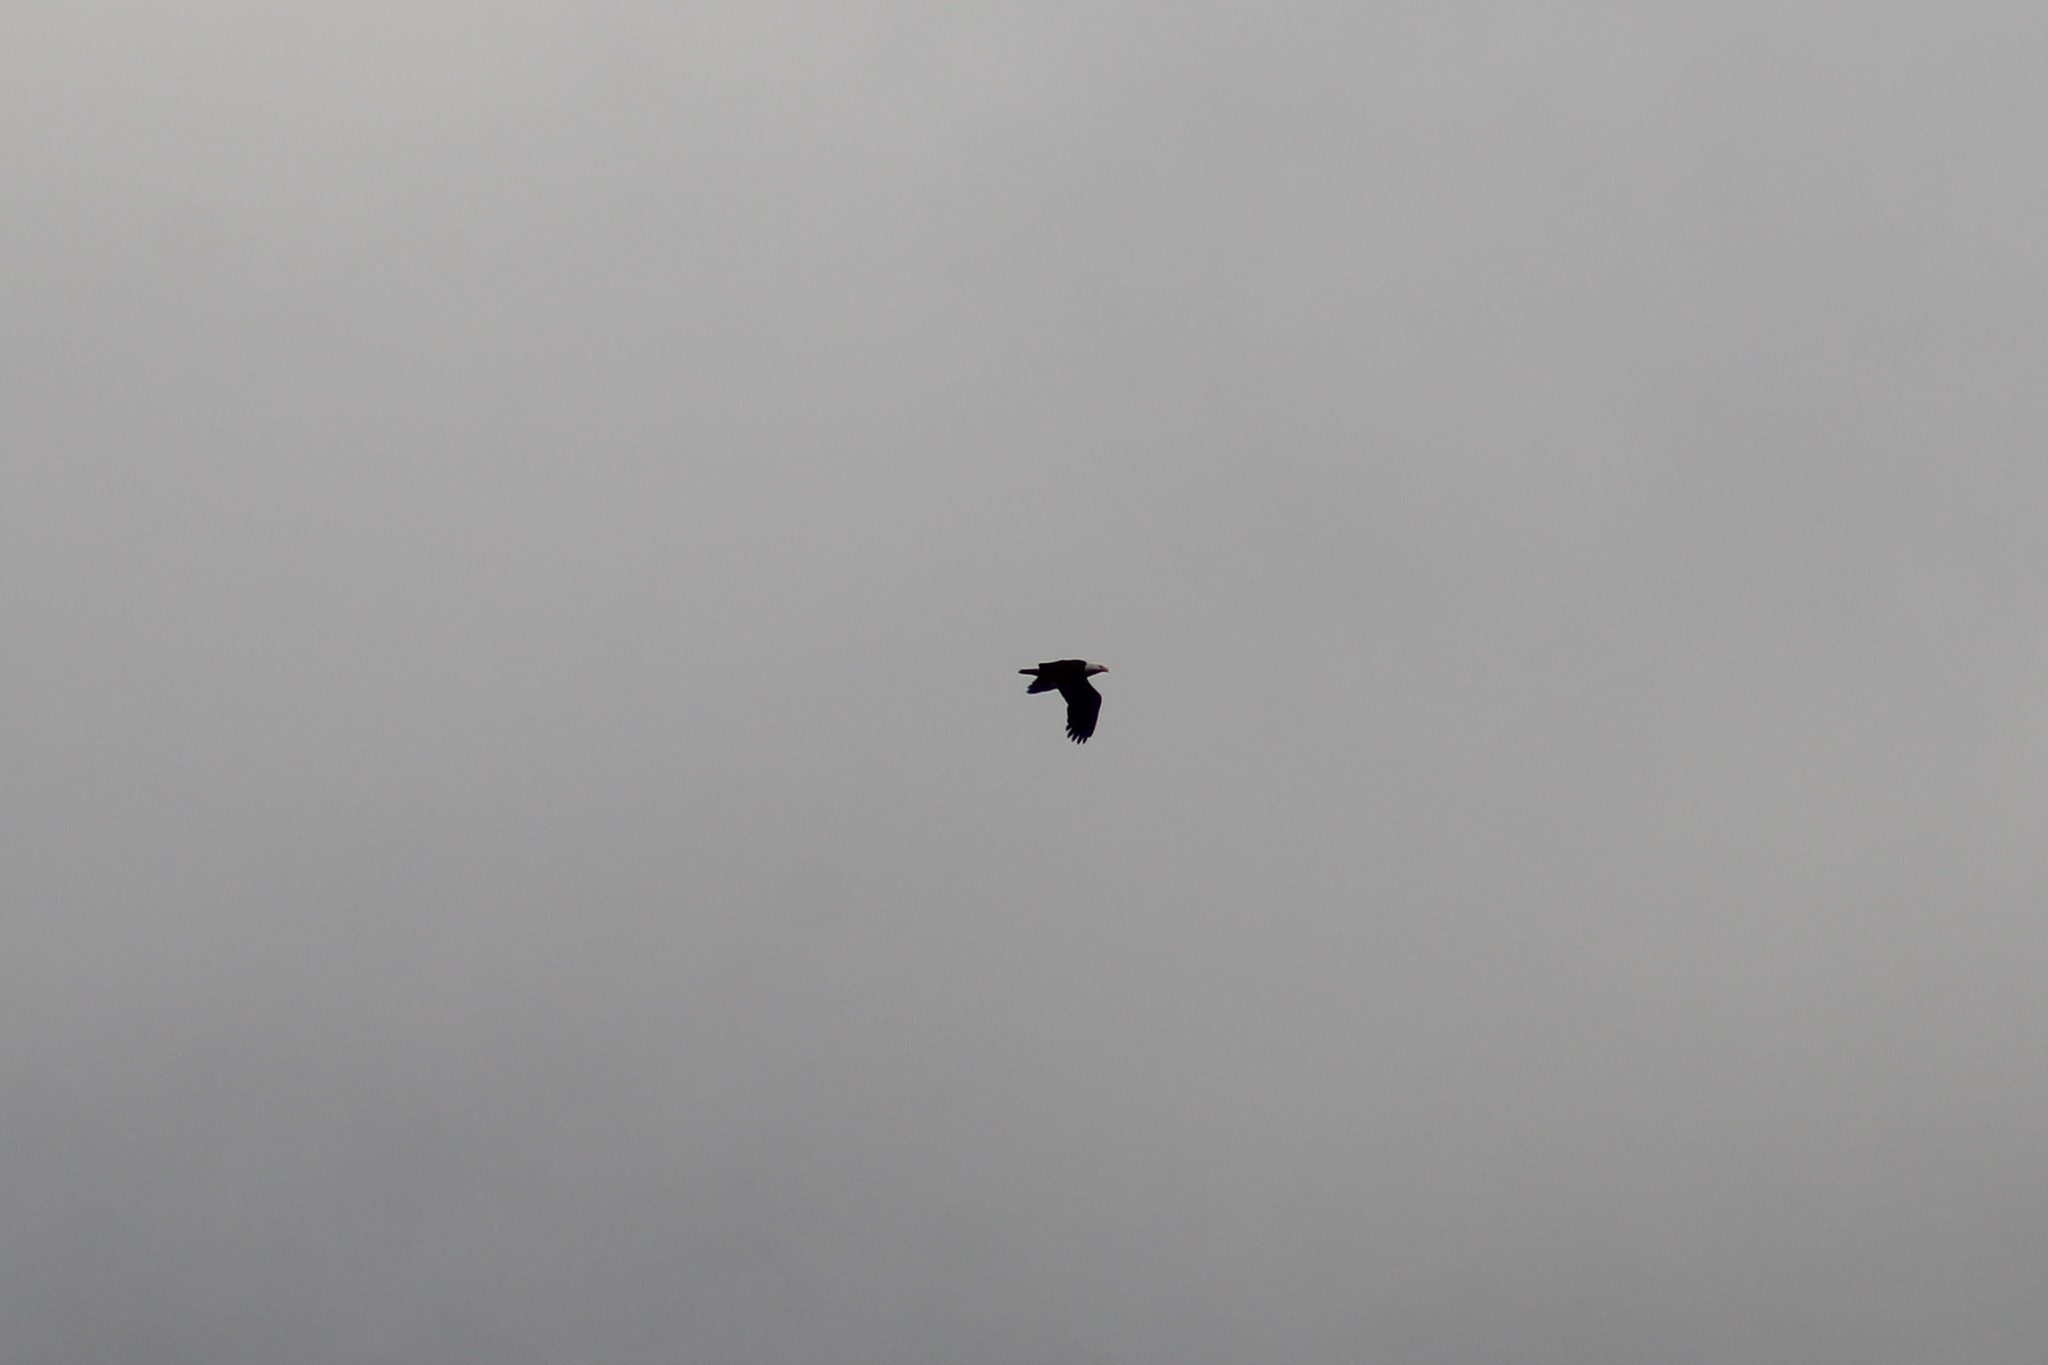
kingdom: Animalia
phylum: Chordata
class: Aves
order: Accipitriformes
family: Accipitridae
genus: Haliaeetus
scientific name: Haliaeetus leucocephalus
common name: Bald eagle
